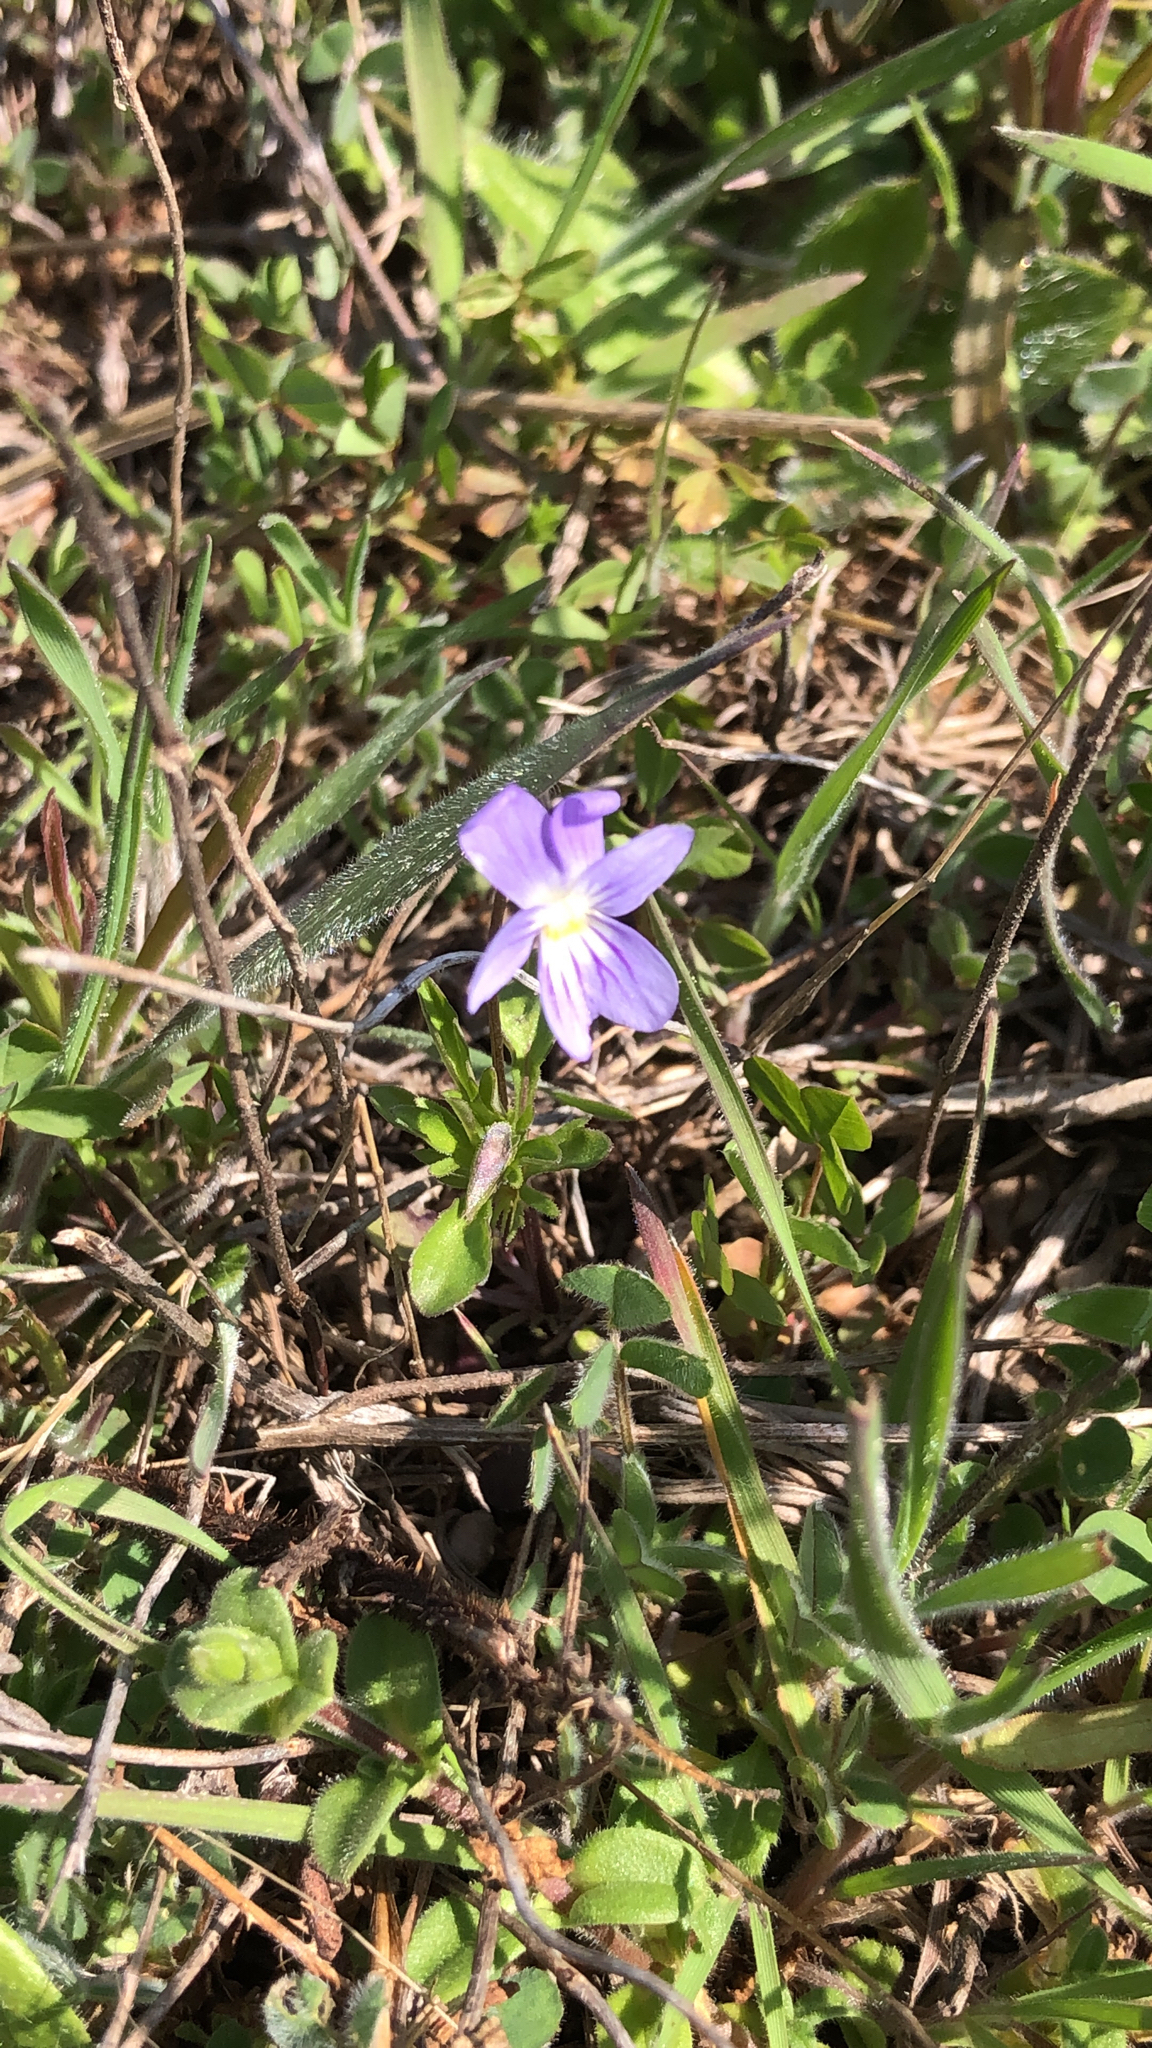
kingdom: Plantae
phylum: Tracheophyta
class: Magnoliopsida
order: Malpighiales
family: Violaceae
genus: Viola
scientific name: Viola rafinesquei
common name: American field pansy
